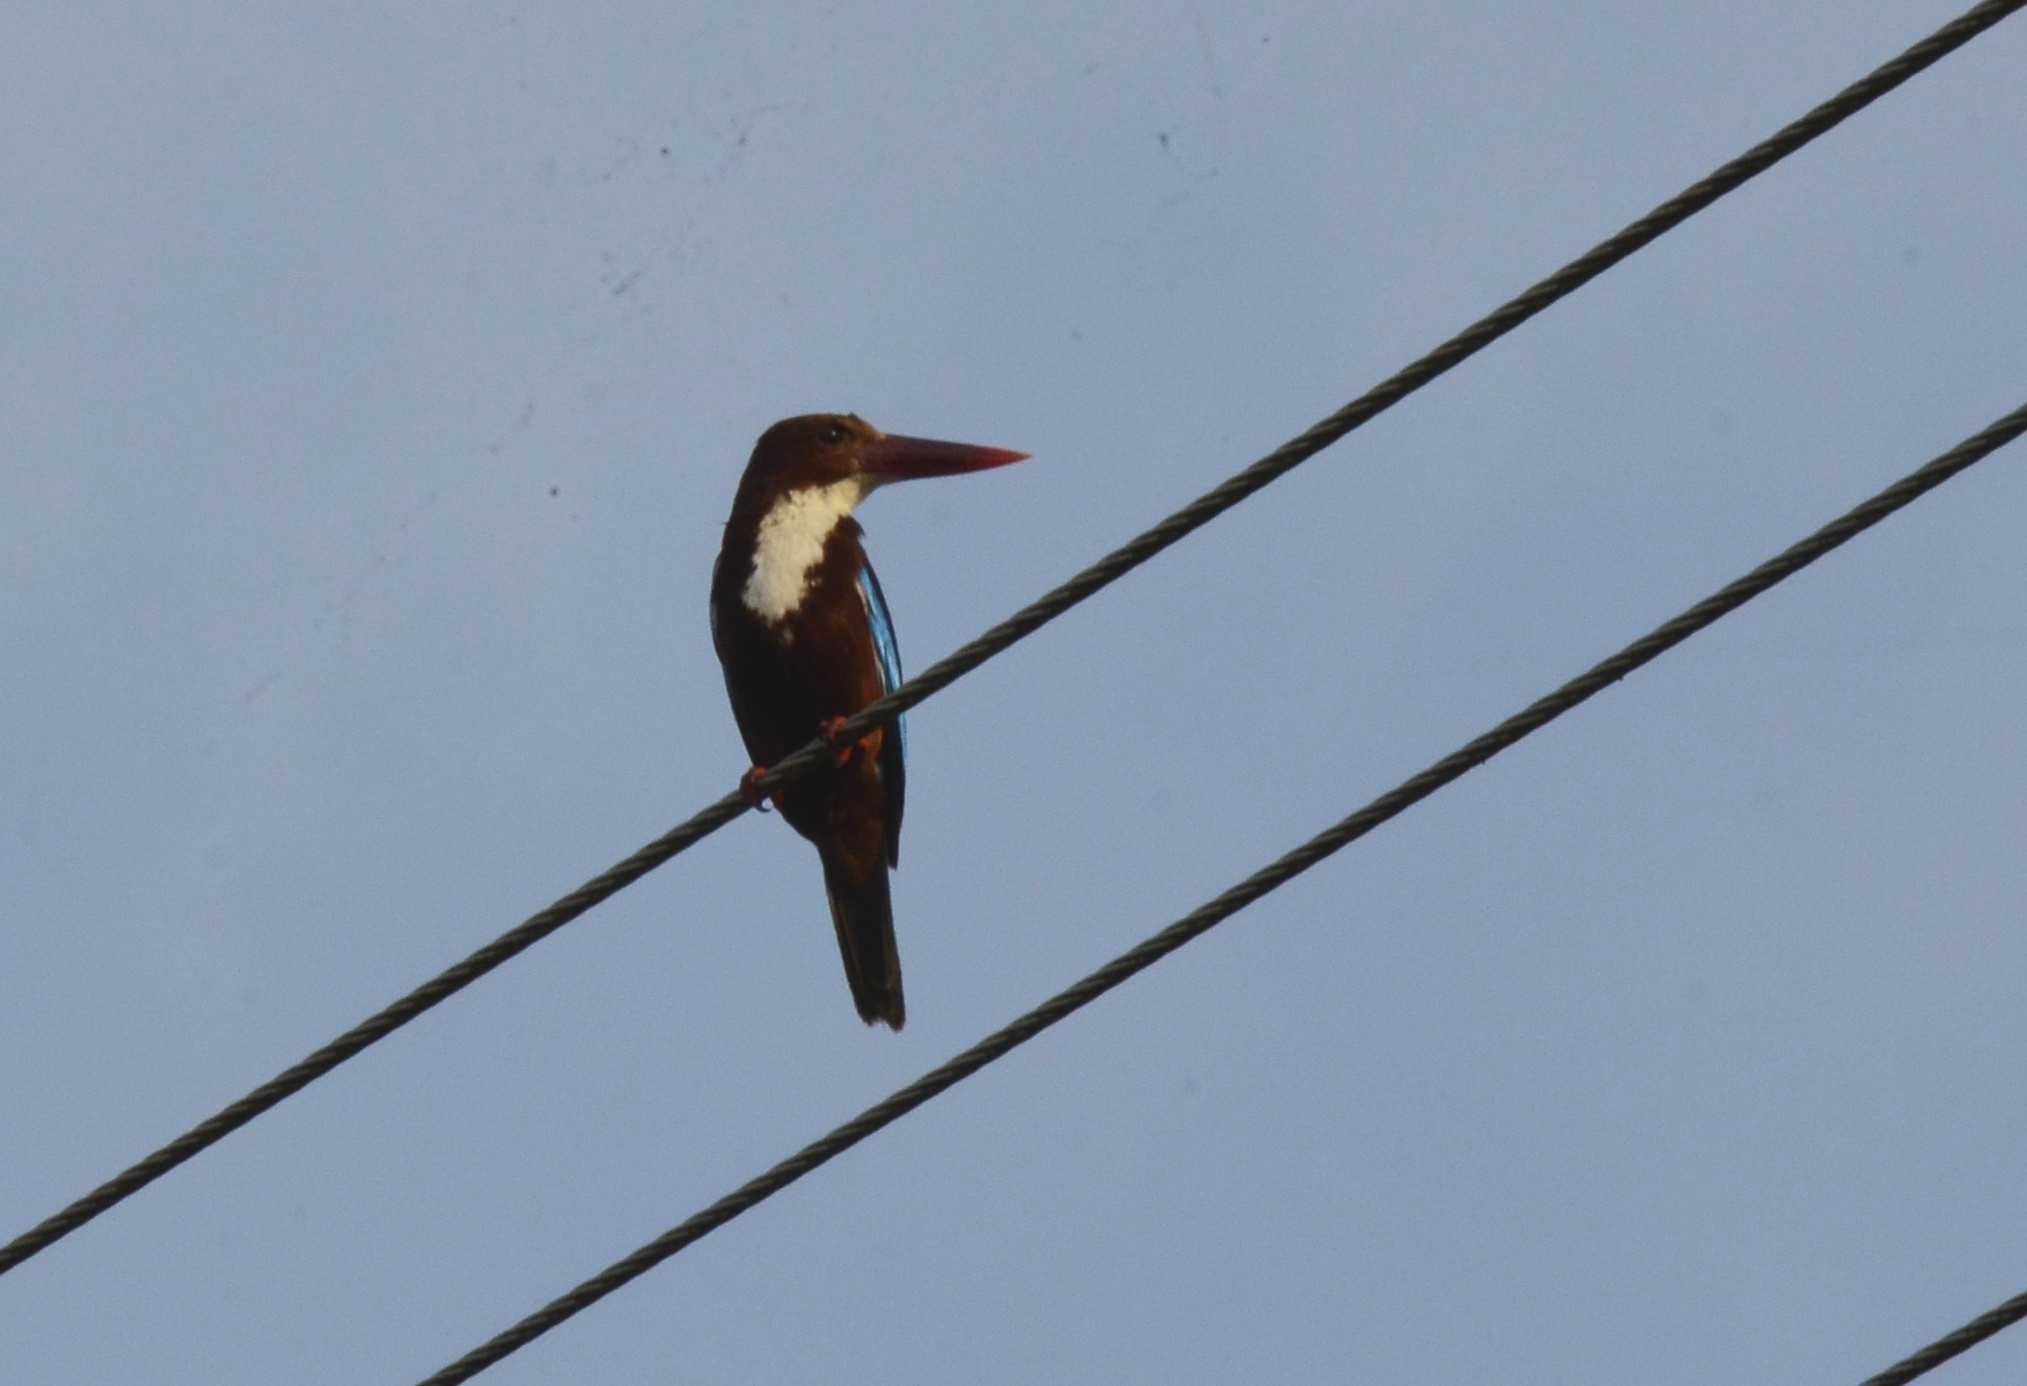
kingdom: Animalia
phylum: Chordata
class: Aves
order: Coraciiformes
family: Alcedinidae
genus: Halcyon
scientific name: Halcyon smyrnensis
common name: White-throated kingfisher
